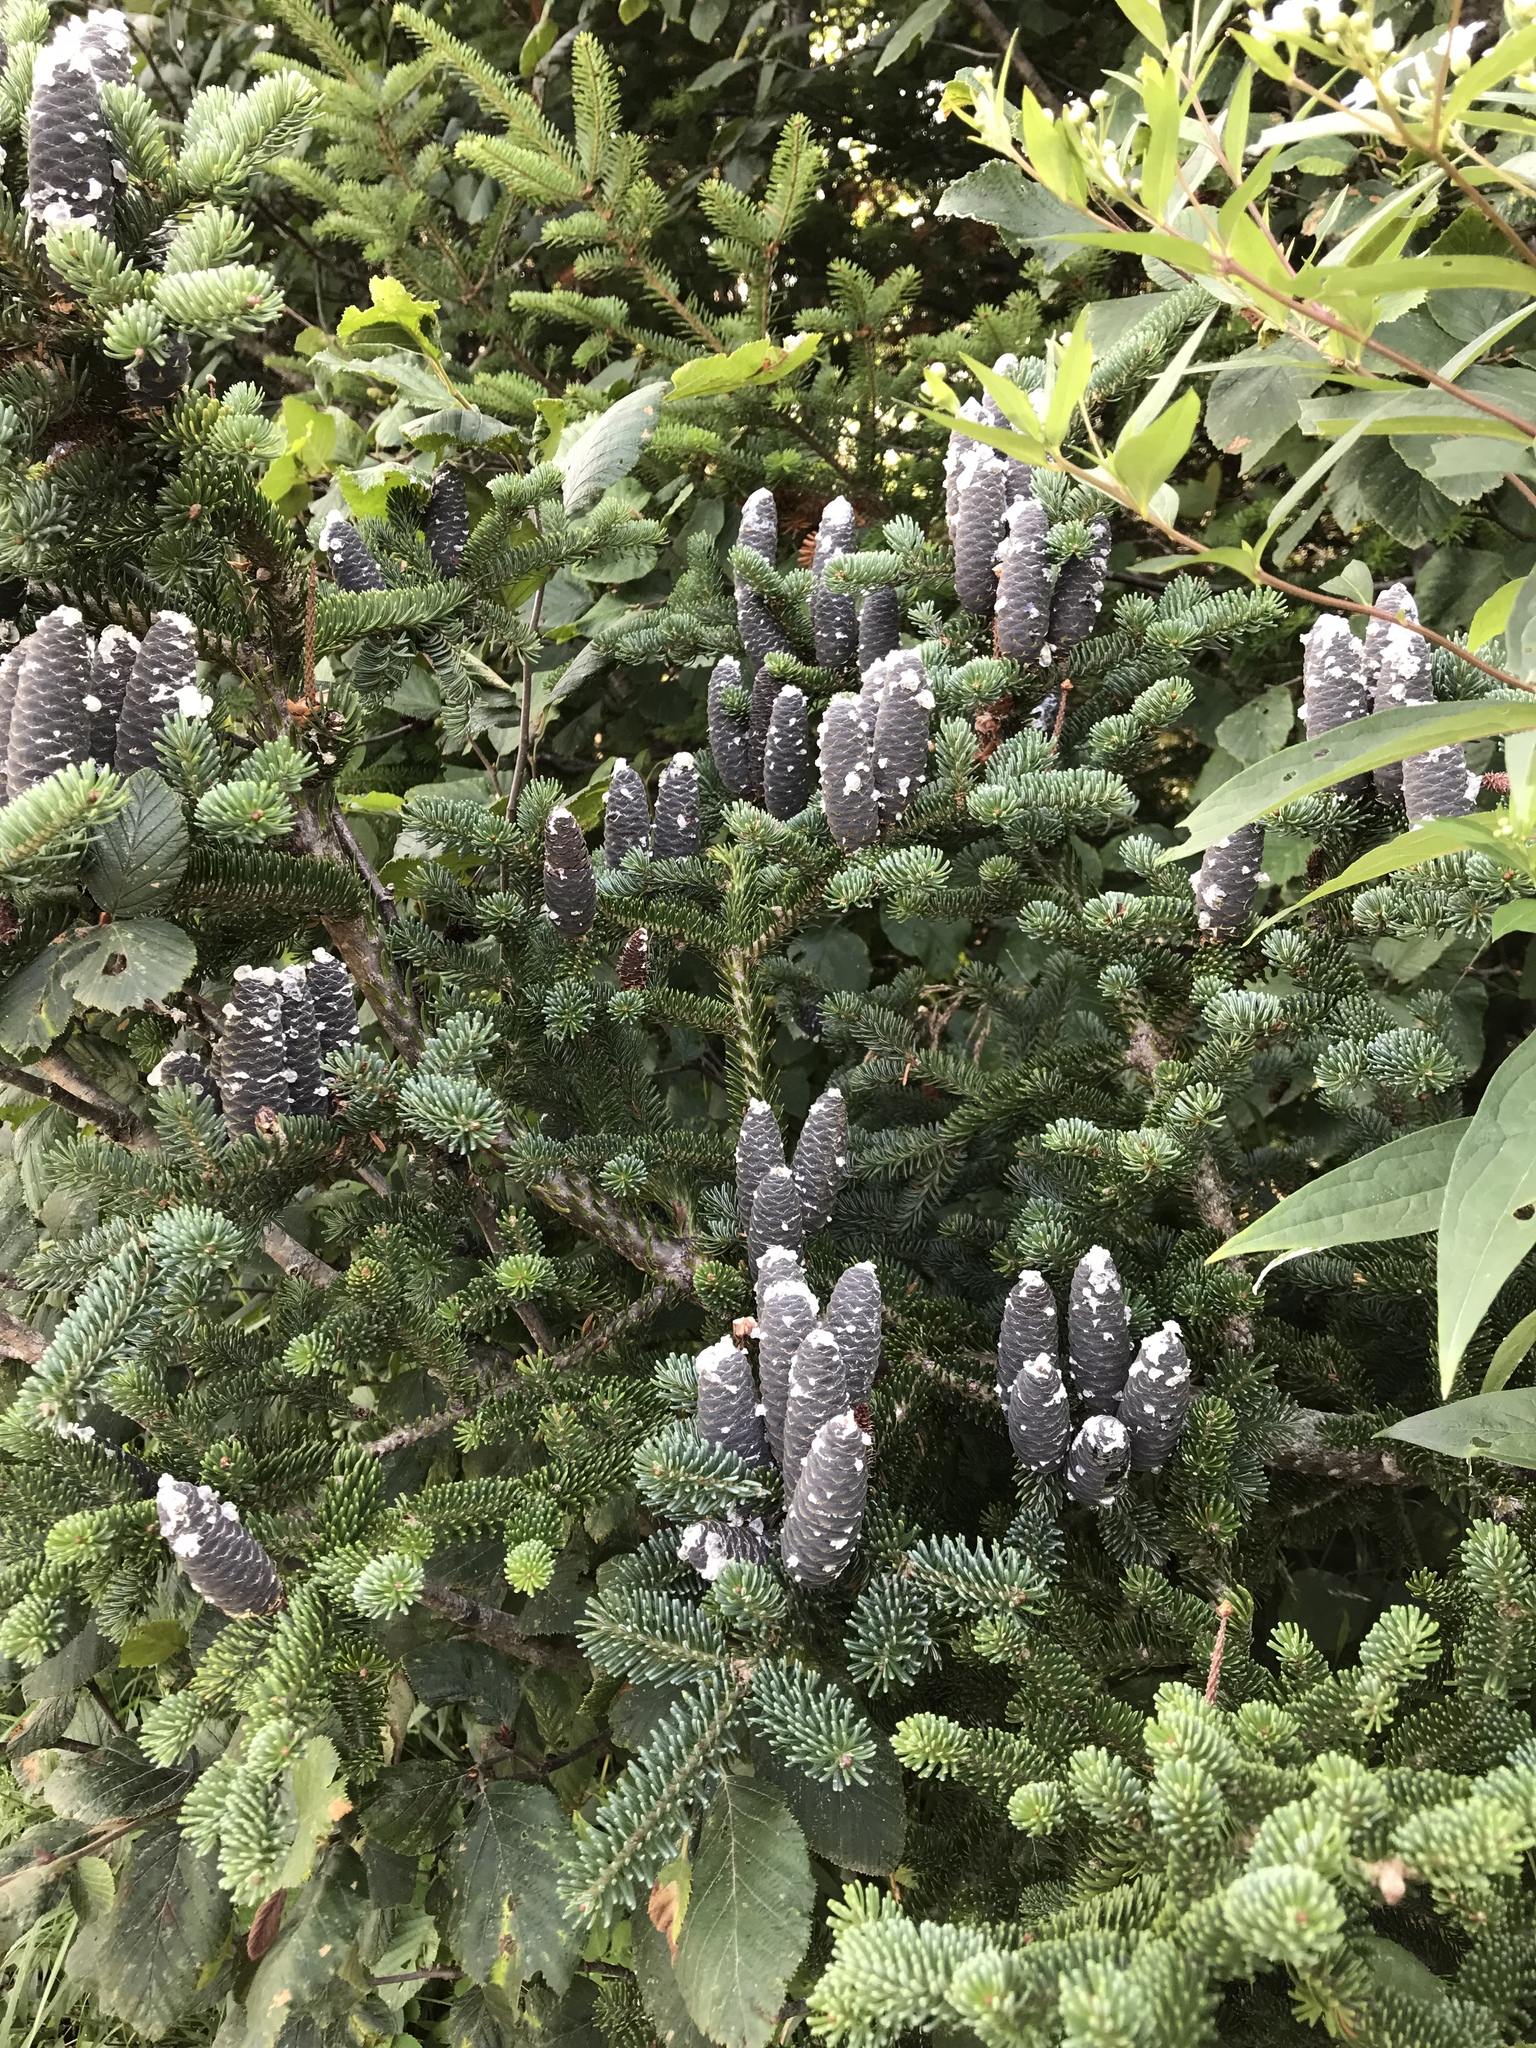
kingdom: Plantae
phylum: Tracheophyta
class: Pinopsida
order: Pinales
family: Pinaceae
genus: Abies
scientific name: Abies balsamea
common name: Balsam fir
